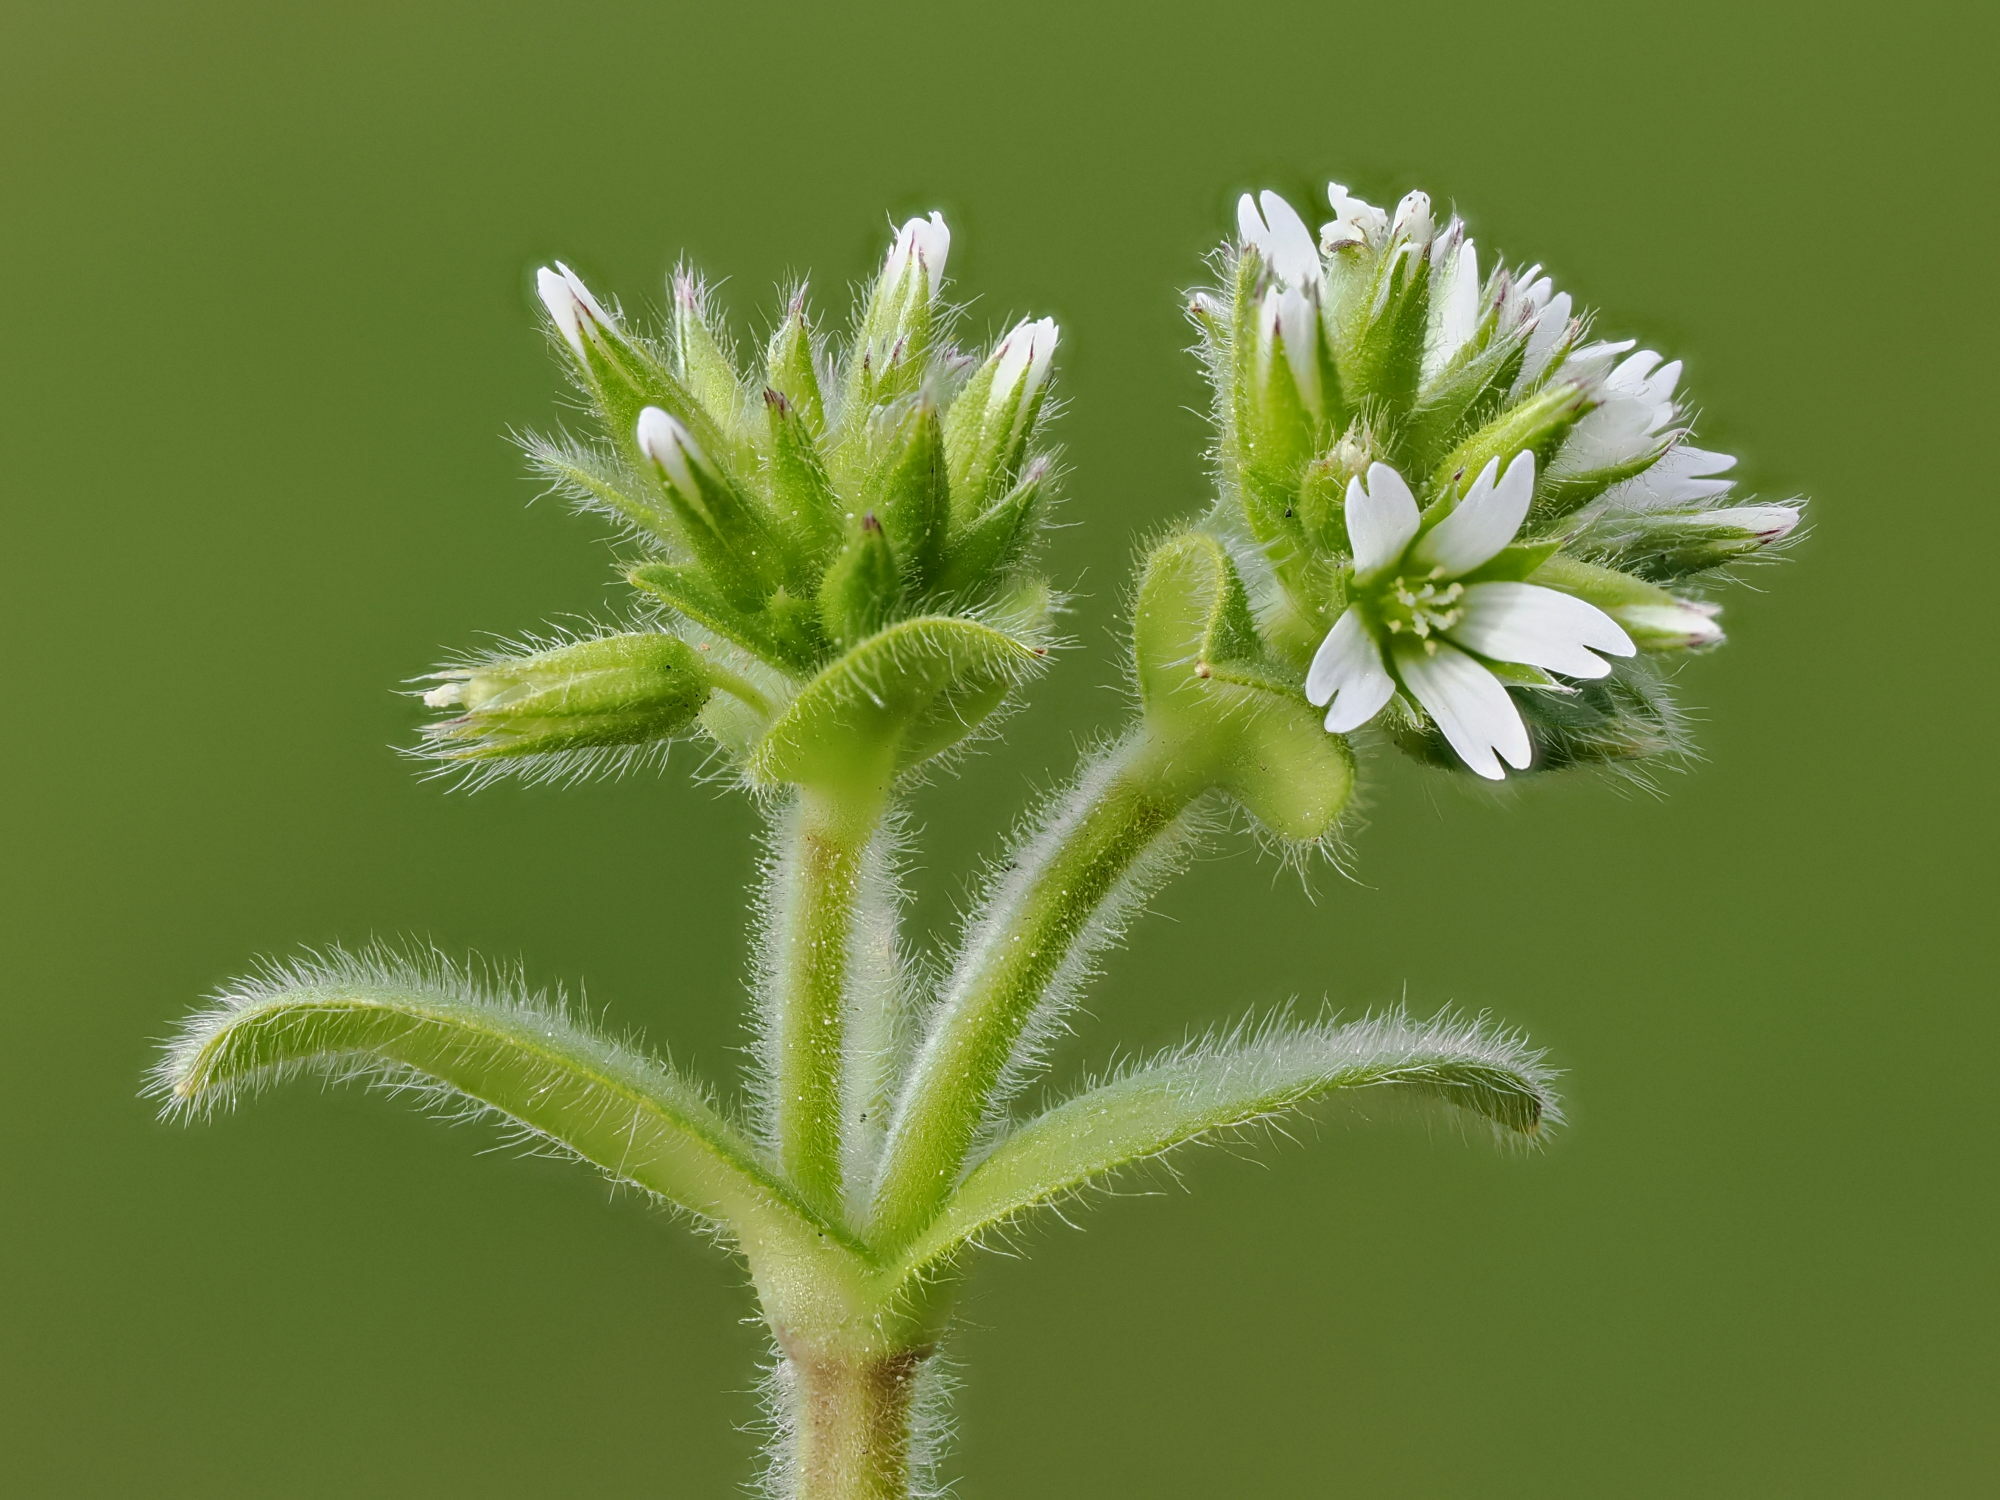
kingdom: Plantae
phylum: Tracheophyta
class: Magnoliopsida
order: Caryophyllales
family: Caryophyllaceae
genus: Cerastium
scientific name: Cerastium glomeratum
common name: Sticky chickweed
